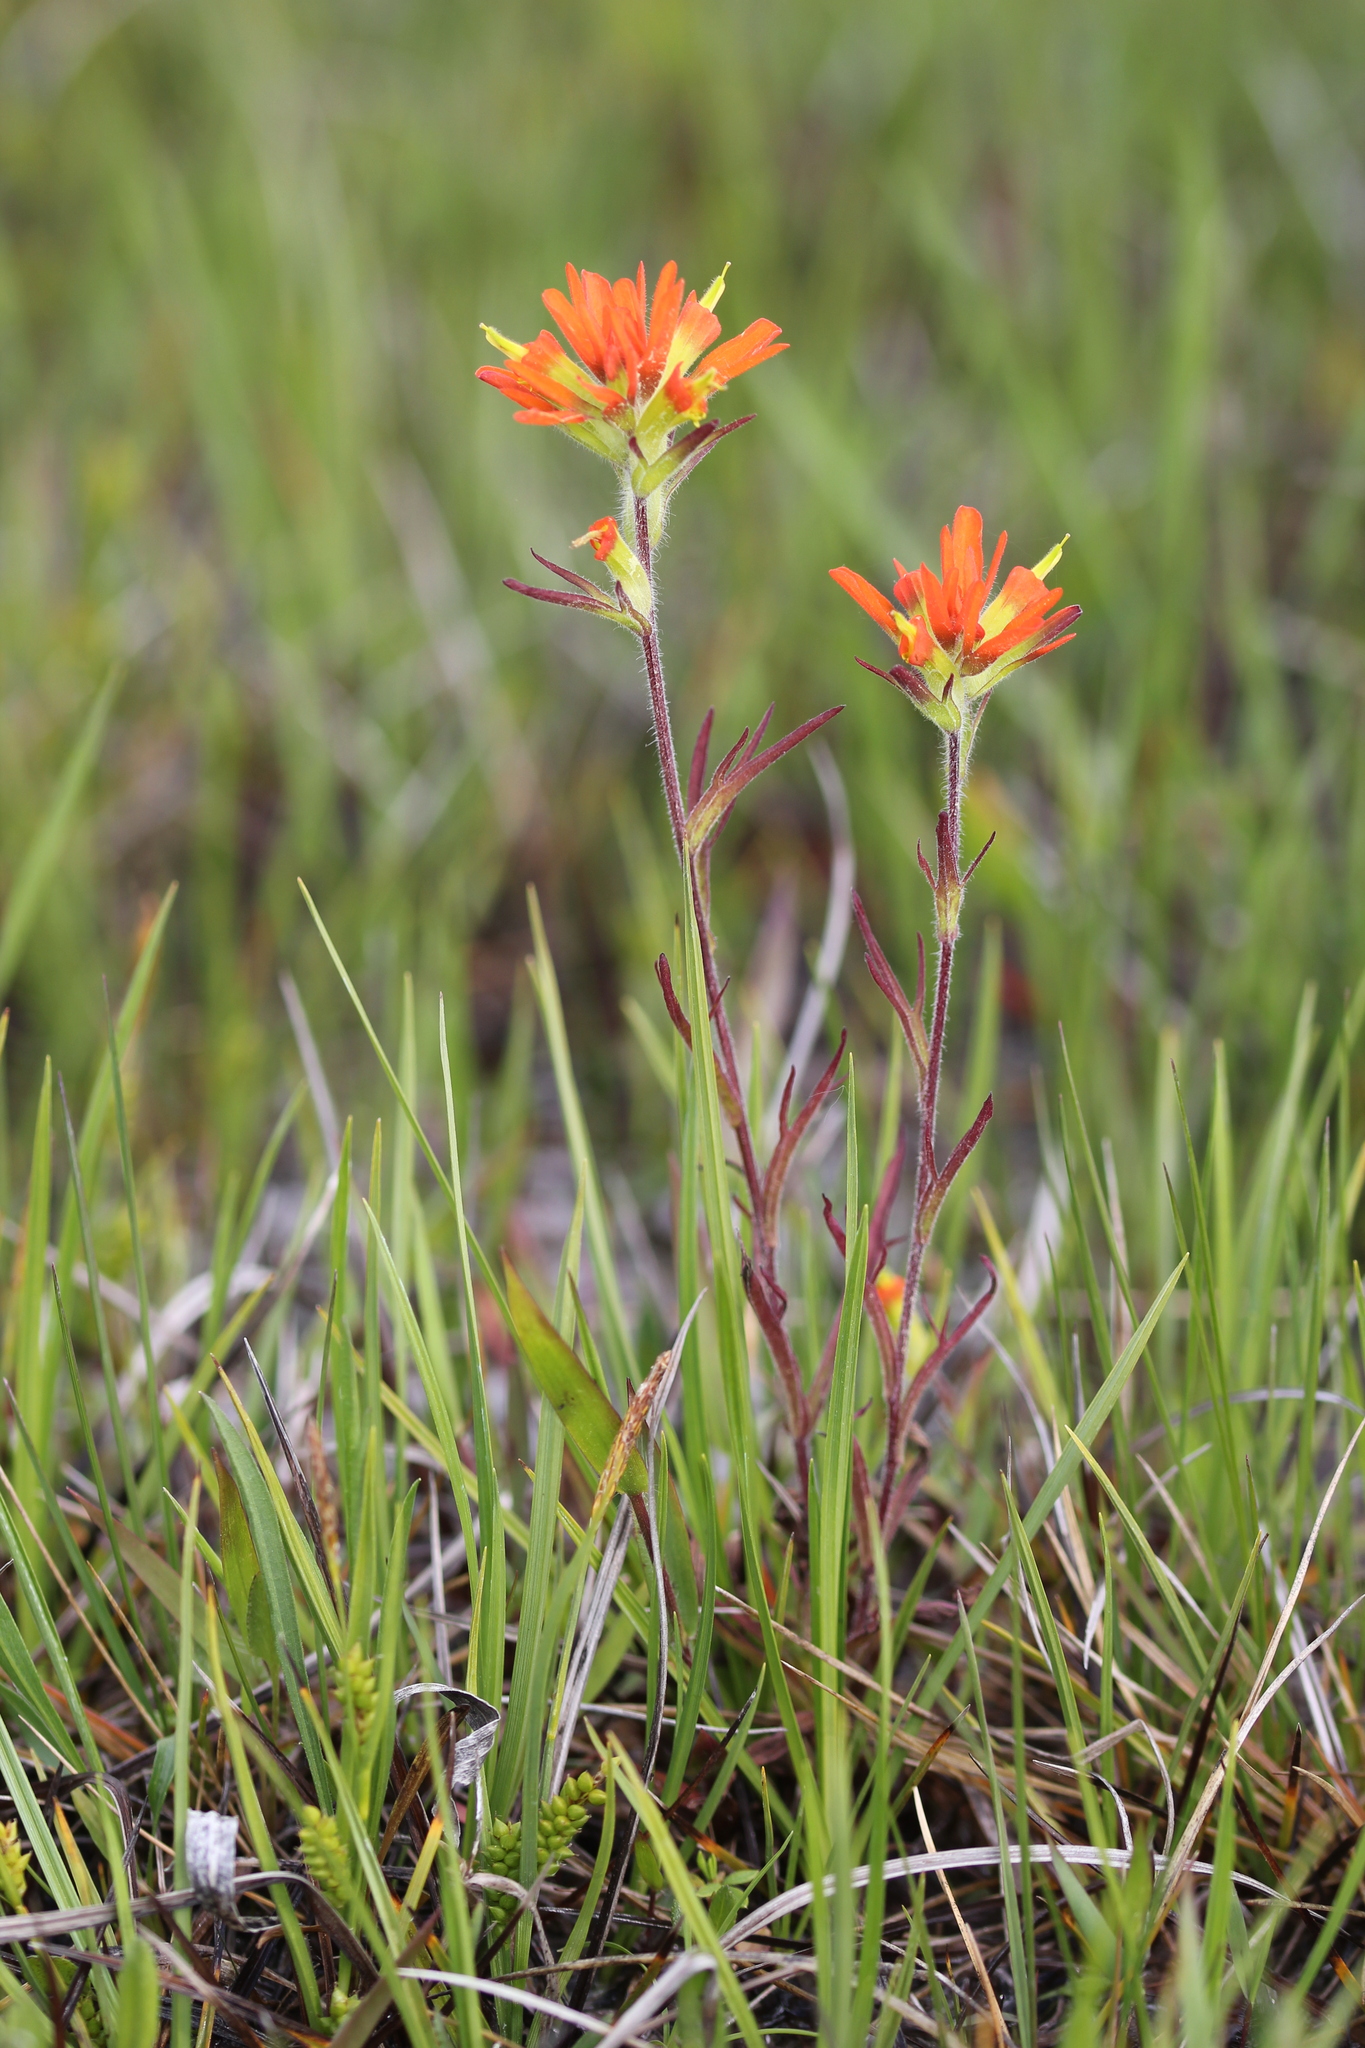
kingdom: Plantae
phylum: Tracheophyta
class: Magnoliopsida
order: Lamiales
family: Orobanchaceae
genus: Castilleja
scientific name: Castilleja coccinea
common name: Scarlet paintbrush
